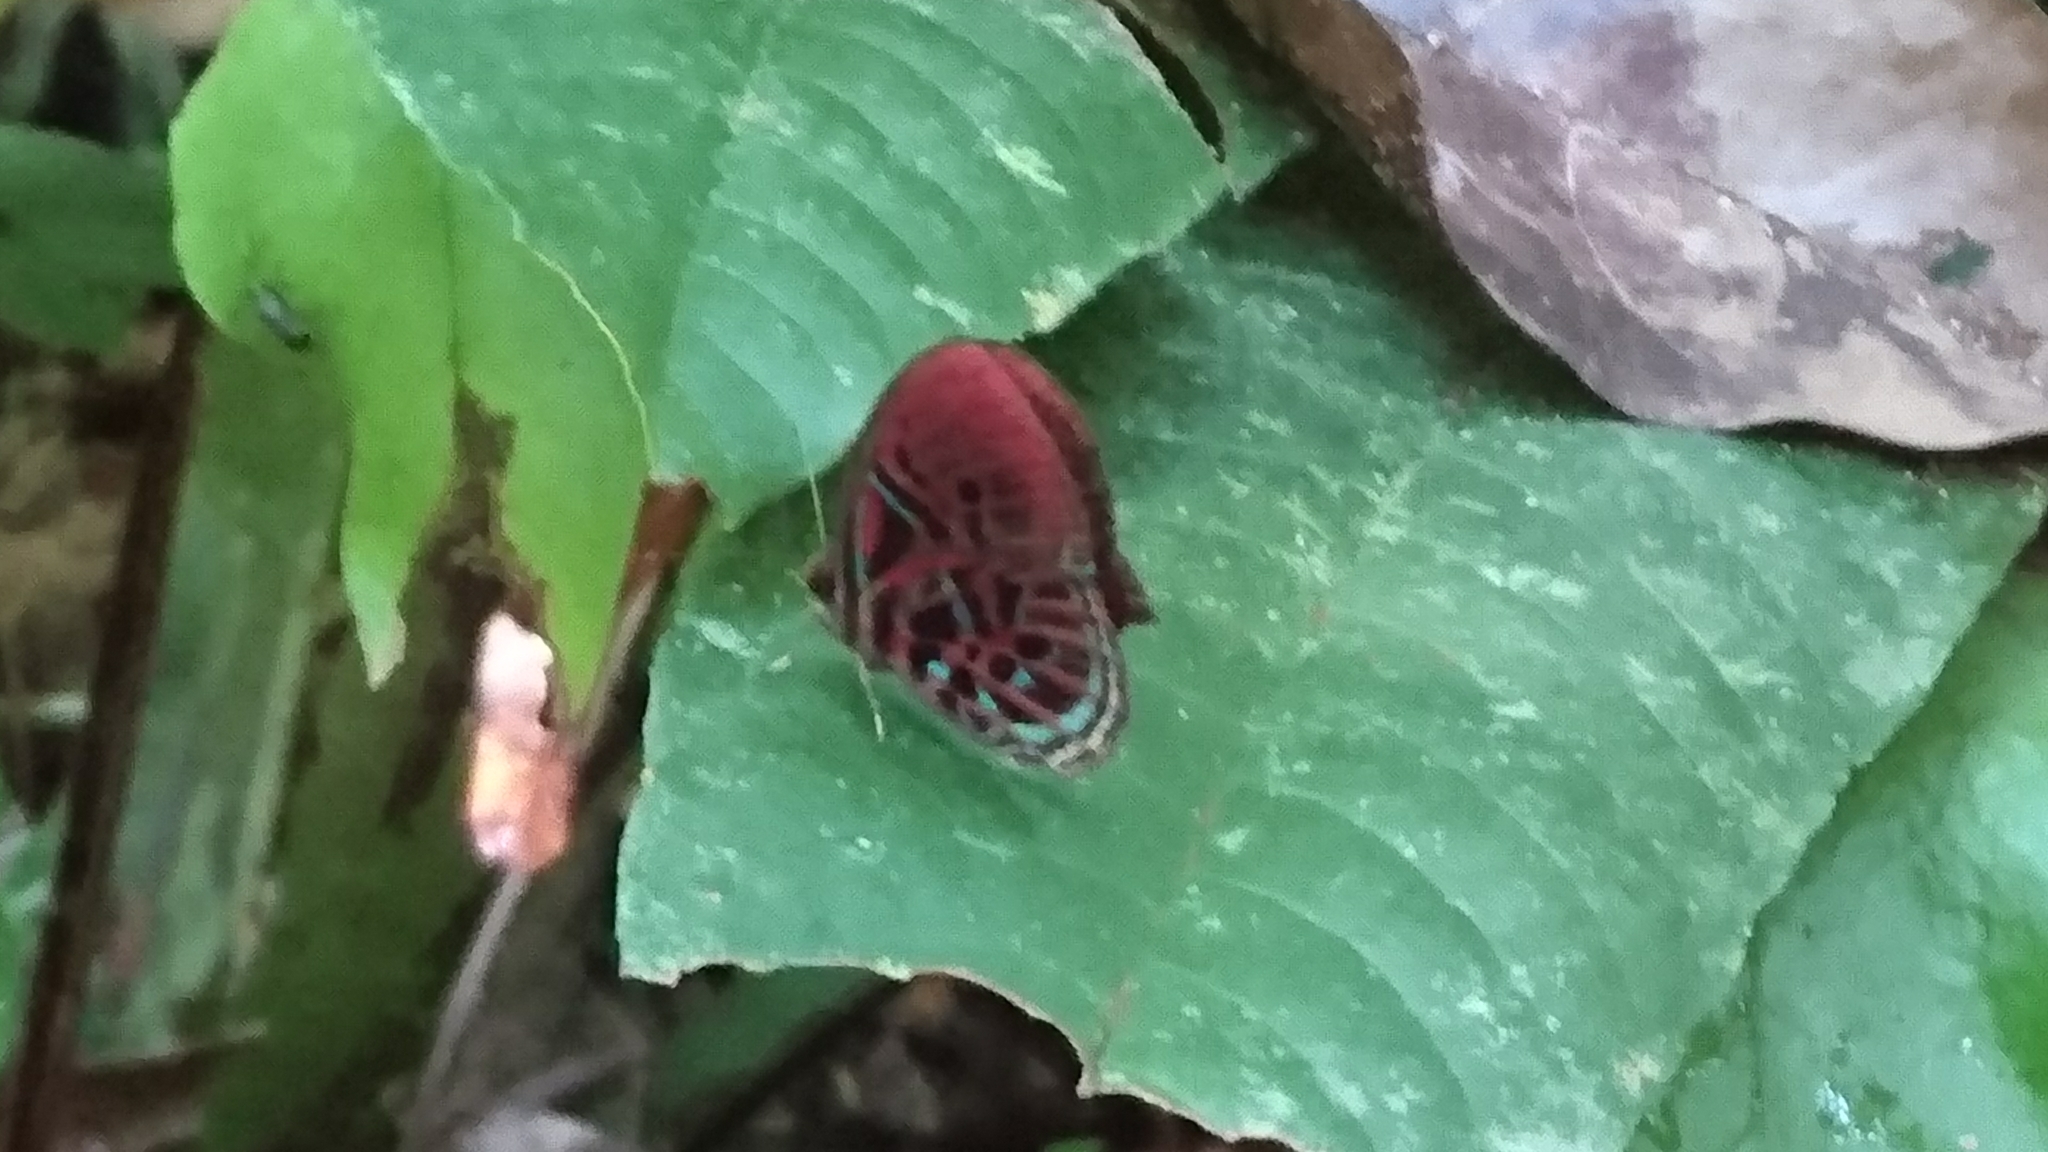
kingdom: Animalia
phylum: Arthropoda
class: Insecta
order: Lepidoptera
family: Riodinidae
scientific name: Riodinidae
